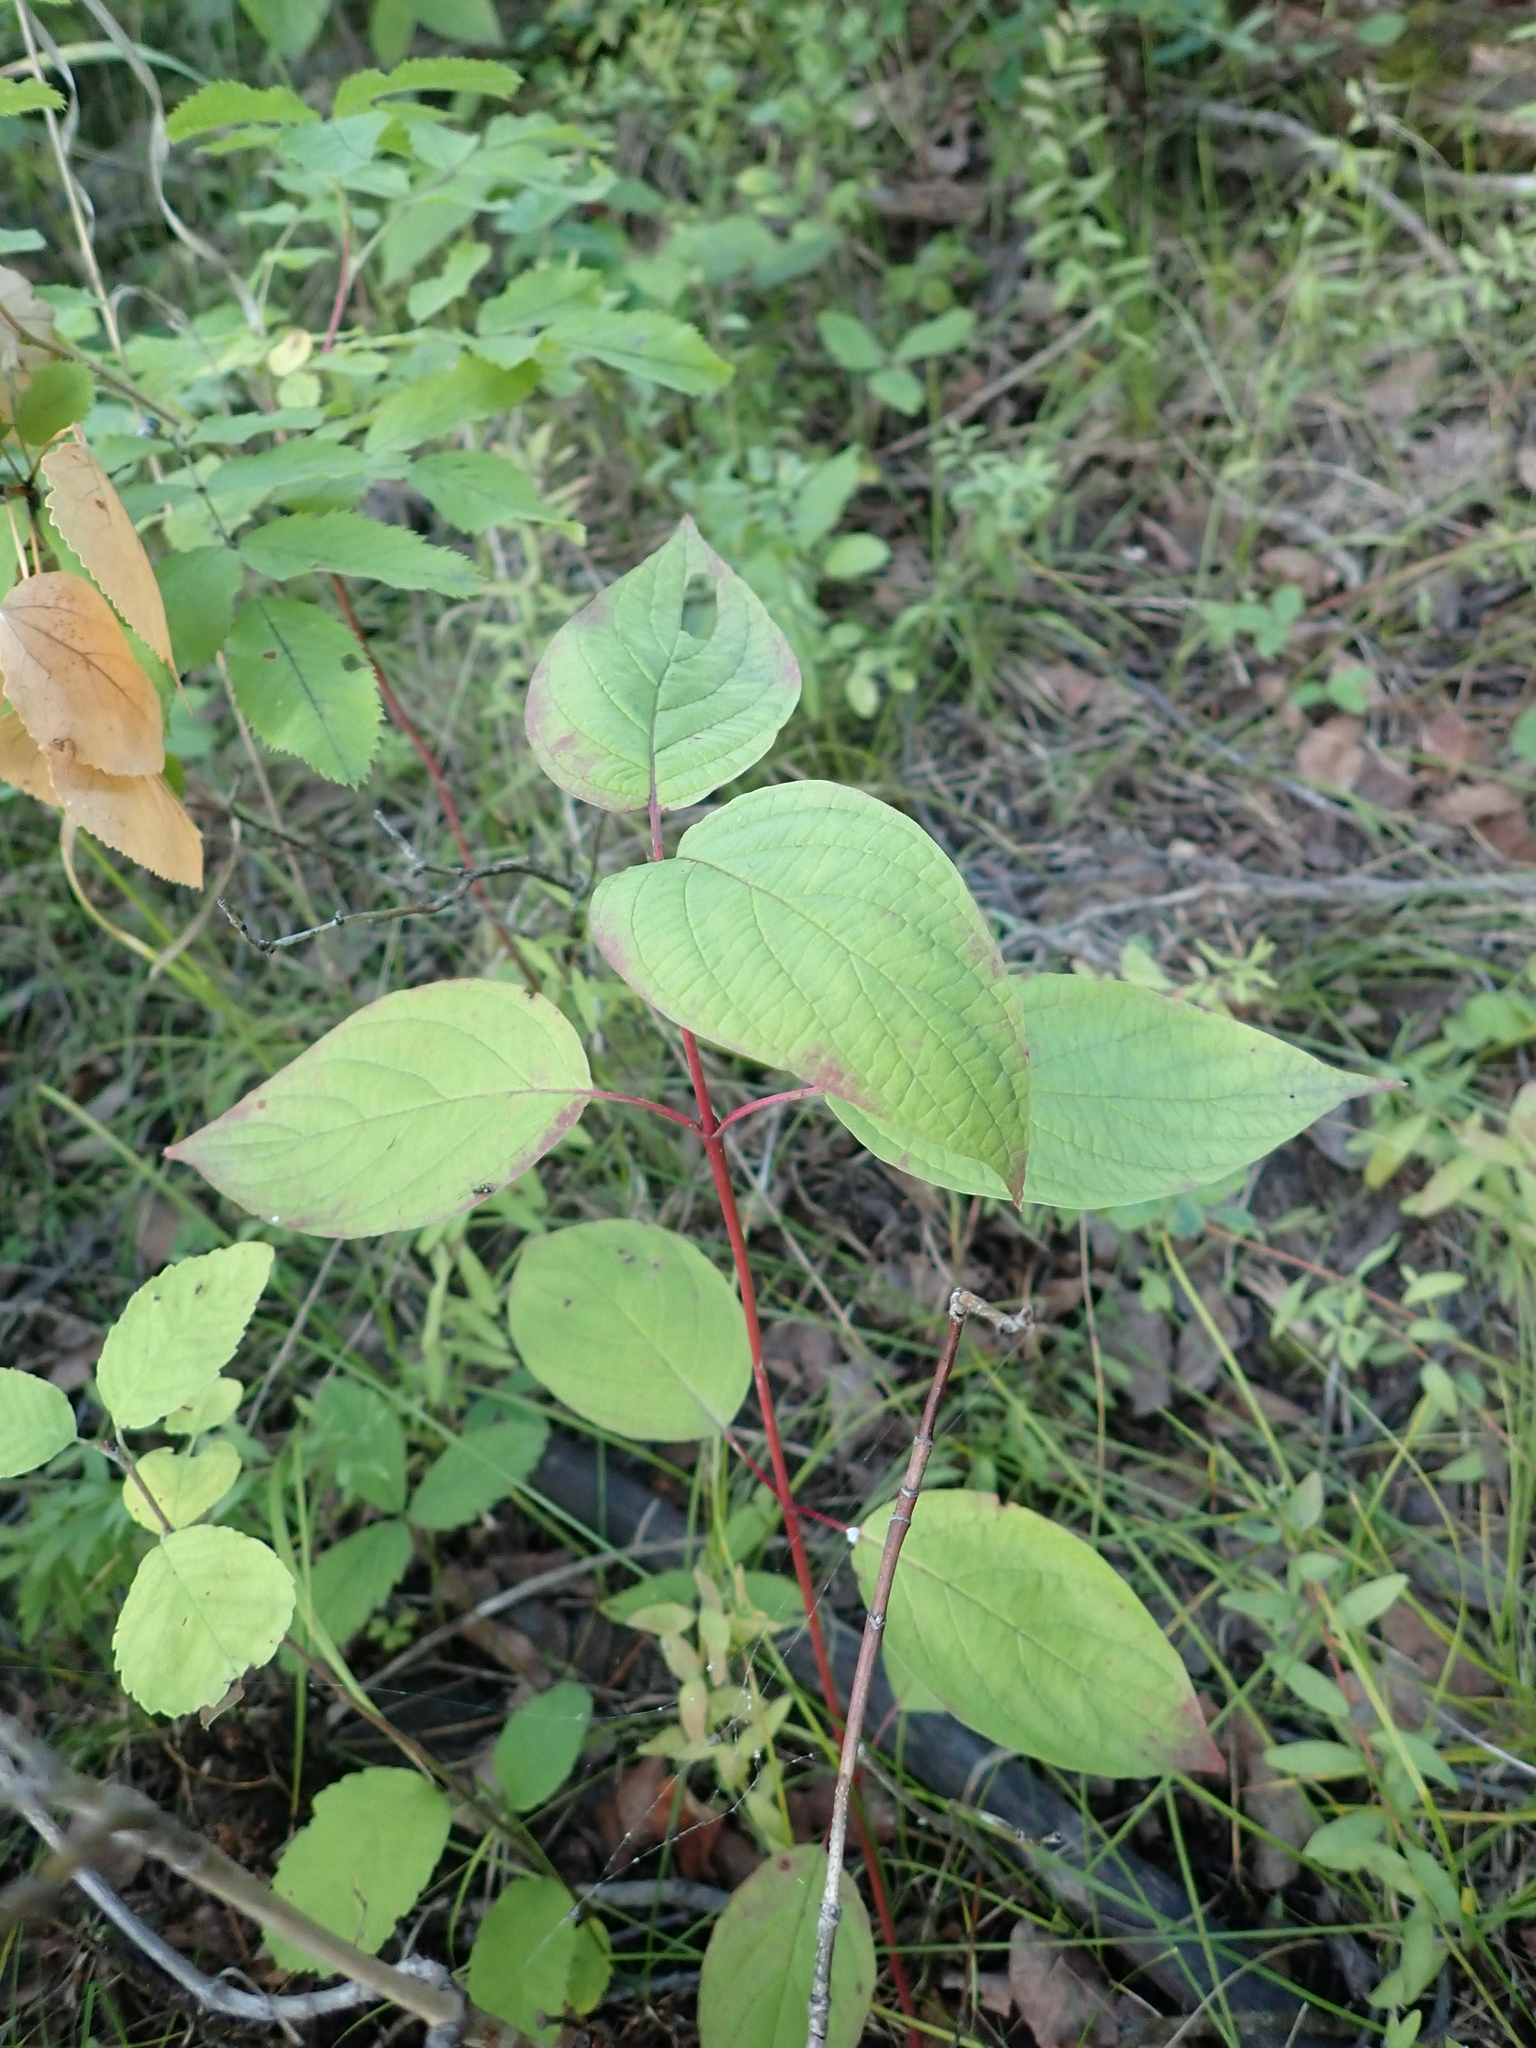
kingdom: Plantae
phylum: Tracheophyta
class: Magnoliopsida
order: Cornales
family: Cornaceae
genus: Cornus
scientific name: Cornus sericea
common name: Red-osier dogwood
